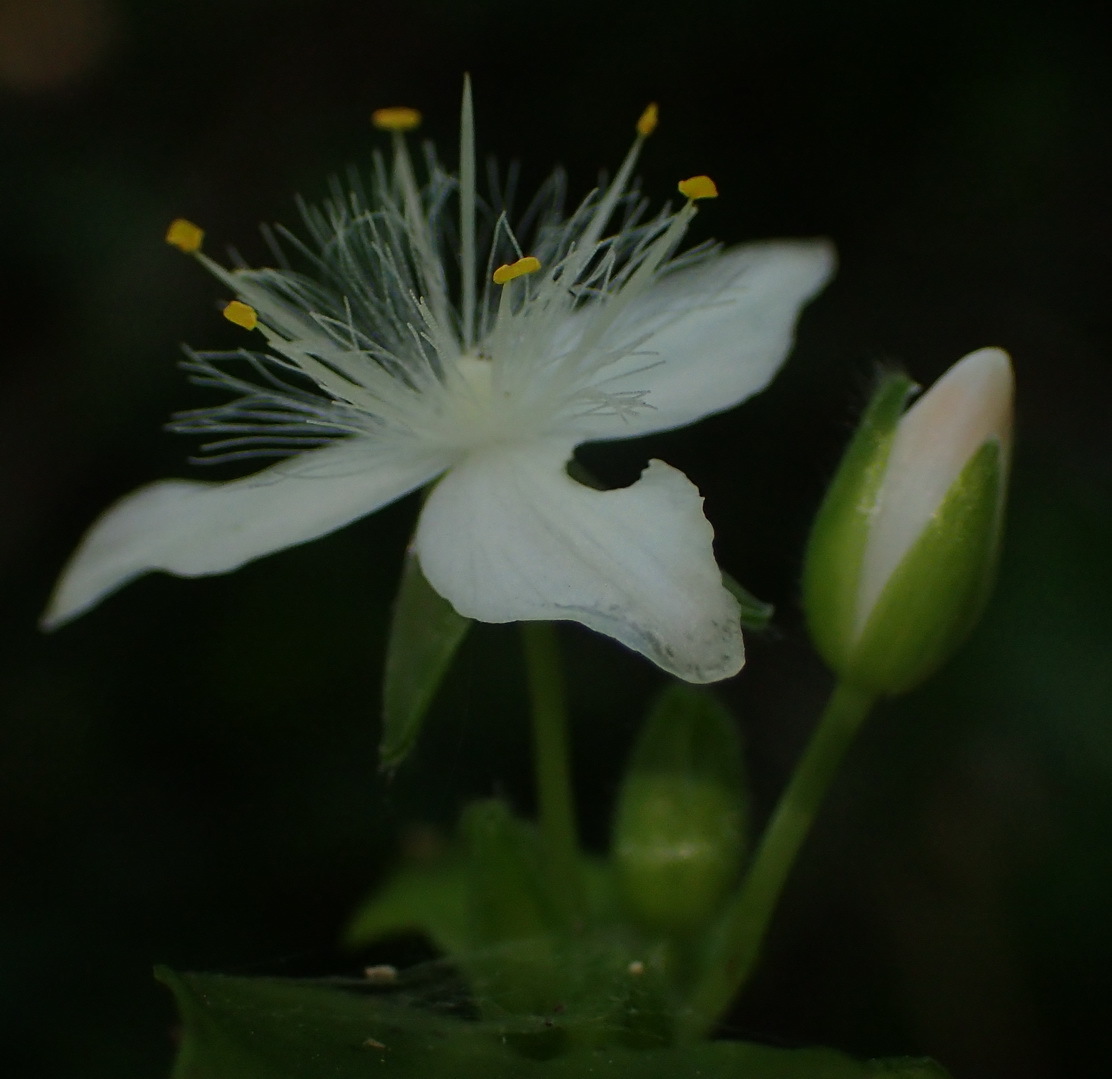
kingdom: Plantae
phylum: Tracheophyta
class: Liliopsida
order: Commelinales
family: Commelinaceae
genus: Tradescantia
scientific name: Tradescantia fluminensis
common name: Wandering-jew
